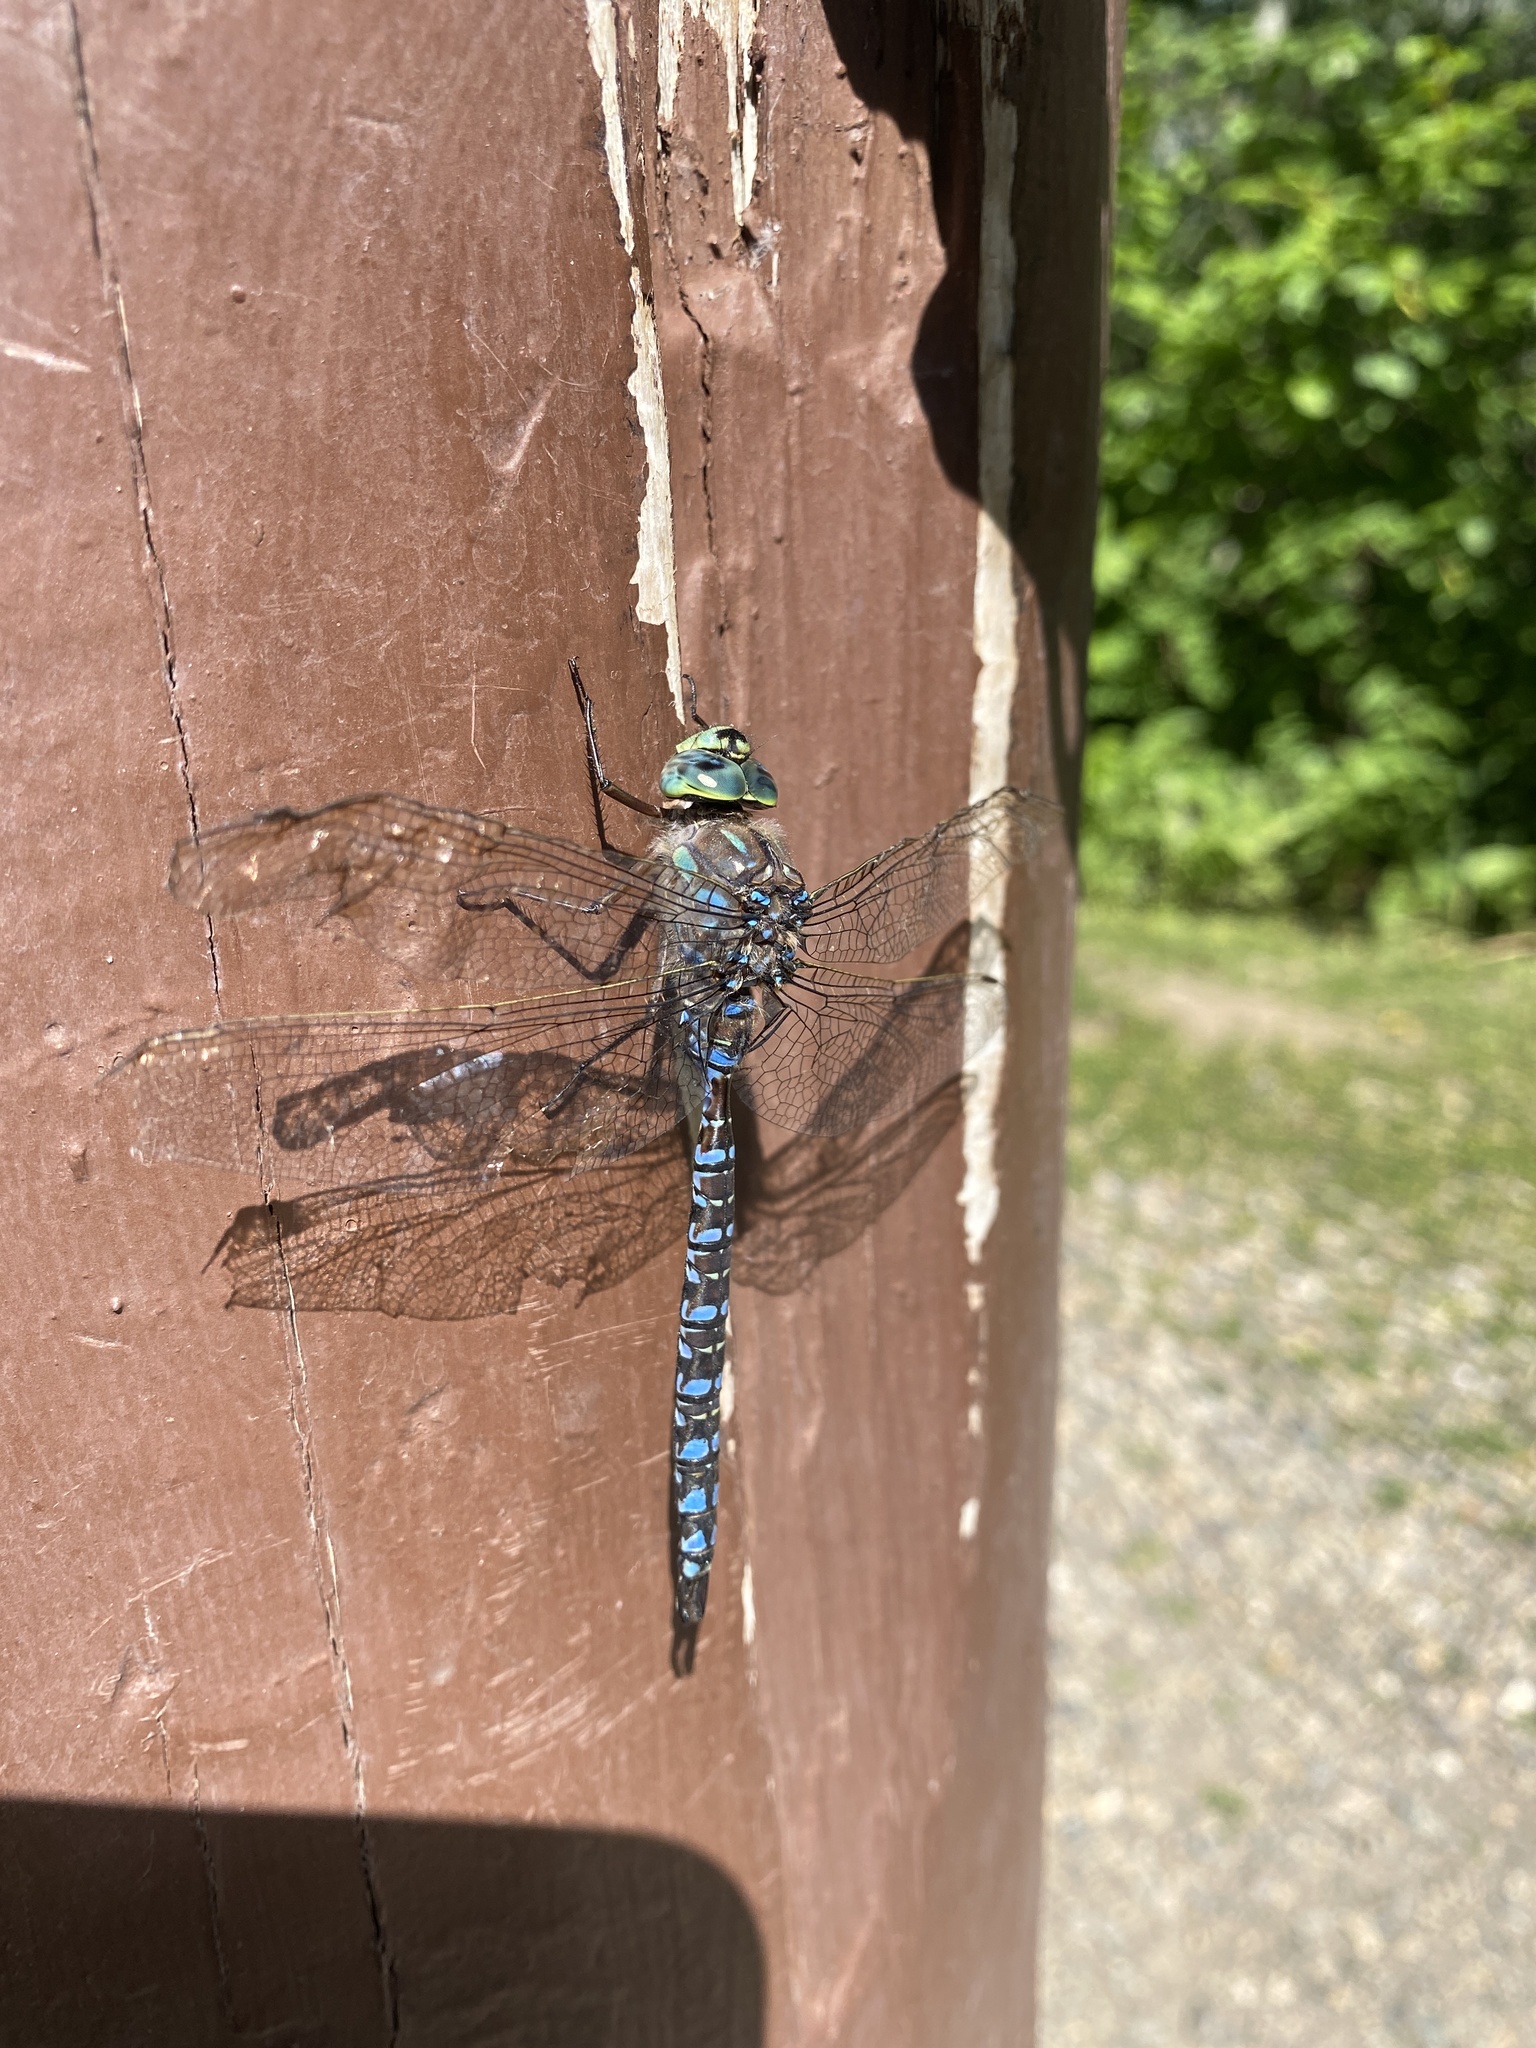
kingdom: Animalia
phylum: Arthropoda
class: Insecta
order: Odonata
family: Aeshnidae
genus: Aeshna
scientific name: Aeshna eremita
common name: Lake darner
